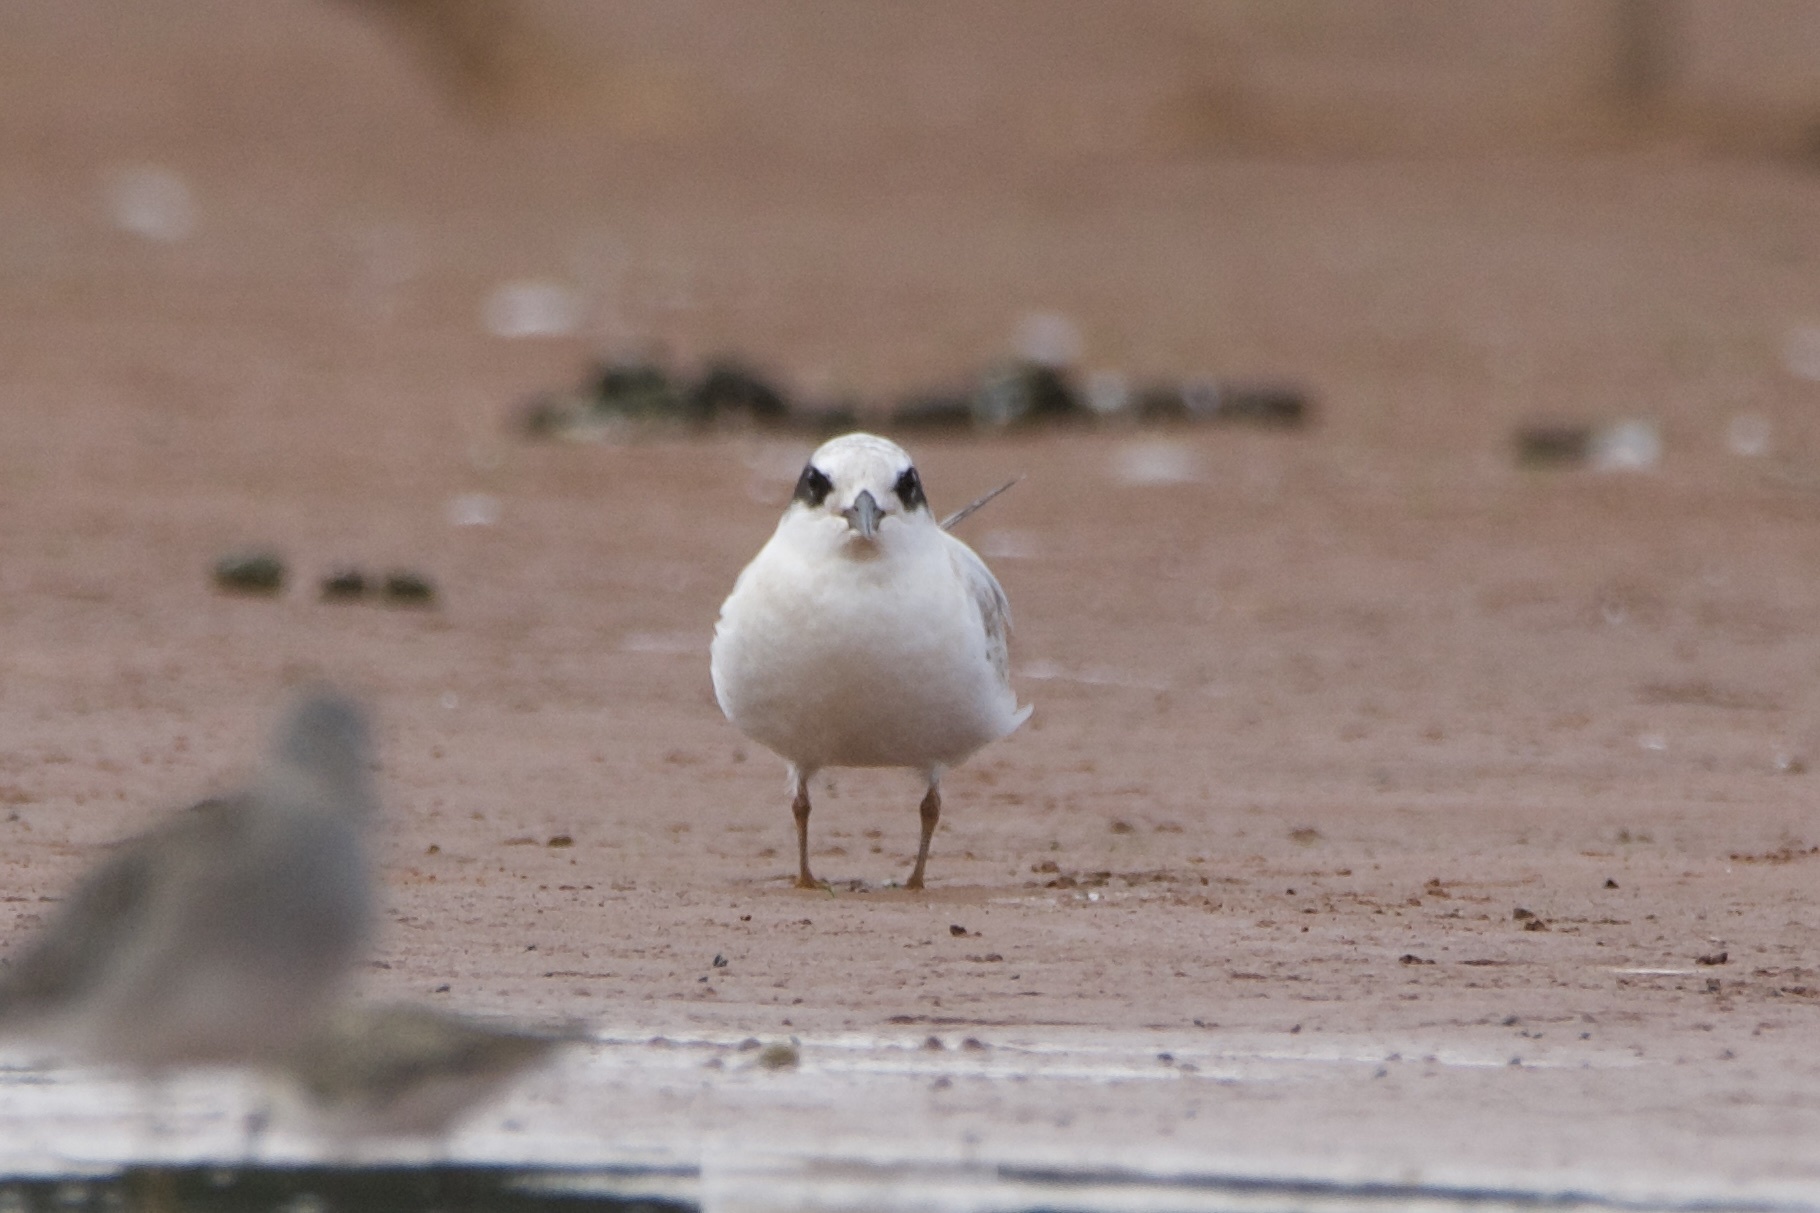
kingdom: Animalia
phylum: Chordata
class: Aves
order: Charadriiformes
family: Laridae
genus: Sterna
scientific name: Sterna forsteri
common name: Forster's tern
